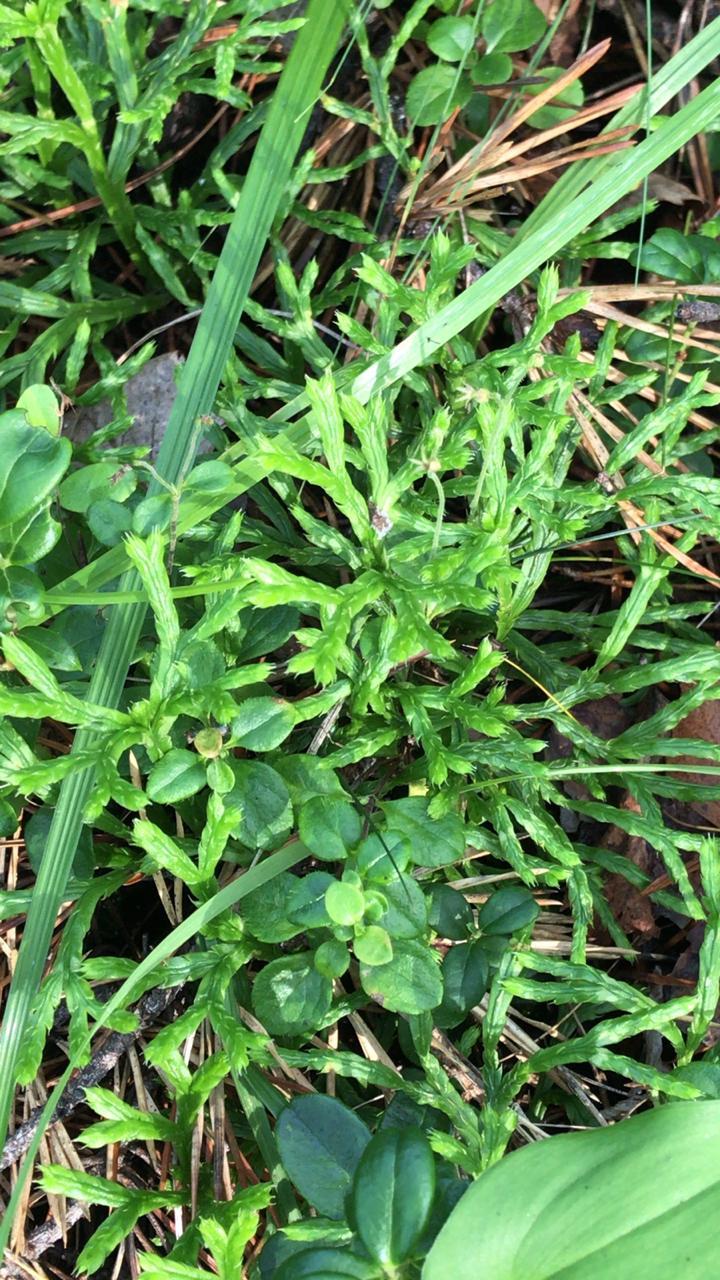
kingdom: Plantae
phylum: Tracheophyta
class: Lycopodiopsida
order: Lycopodiales
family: Lycopodiaceae
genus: Diphasiastrum
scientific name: Diphasiastrum complanatum
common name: Northern running-pine
